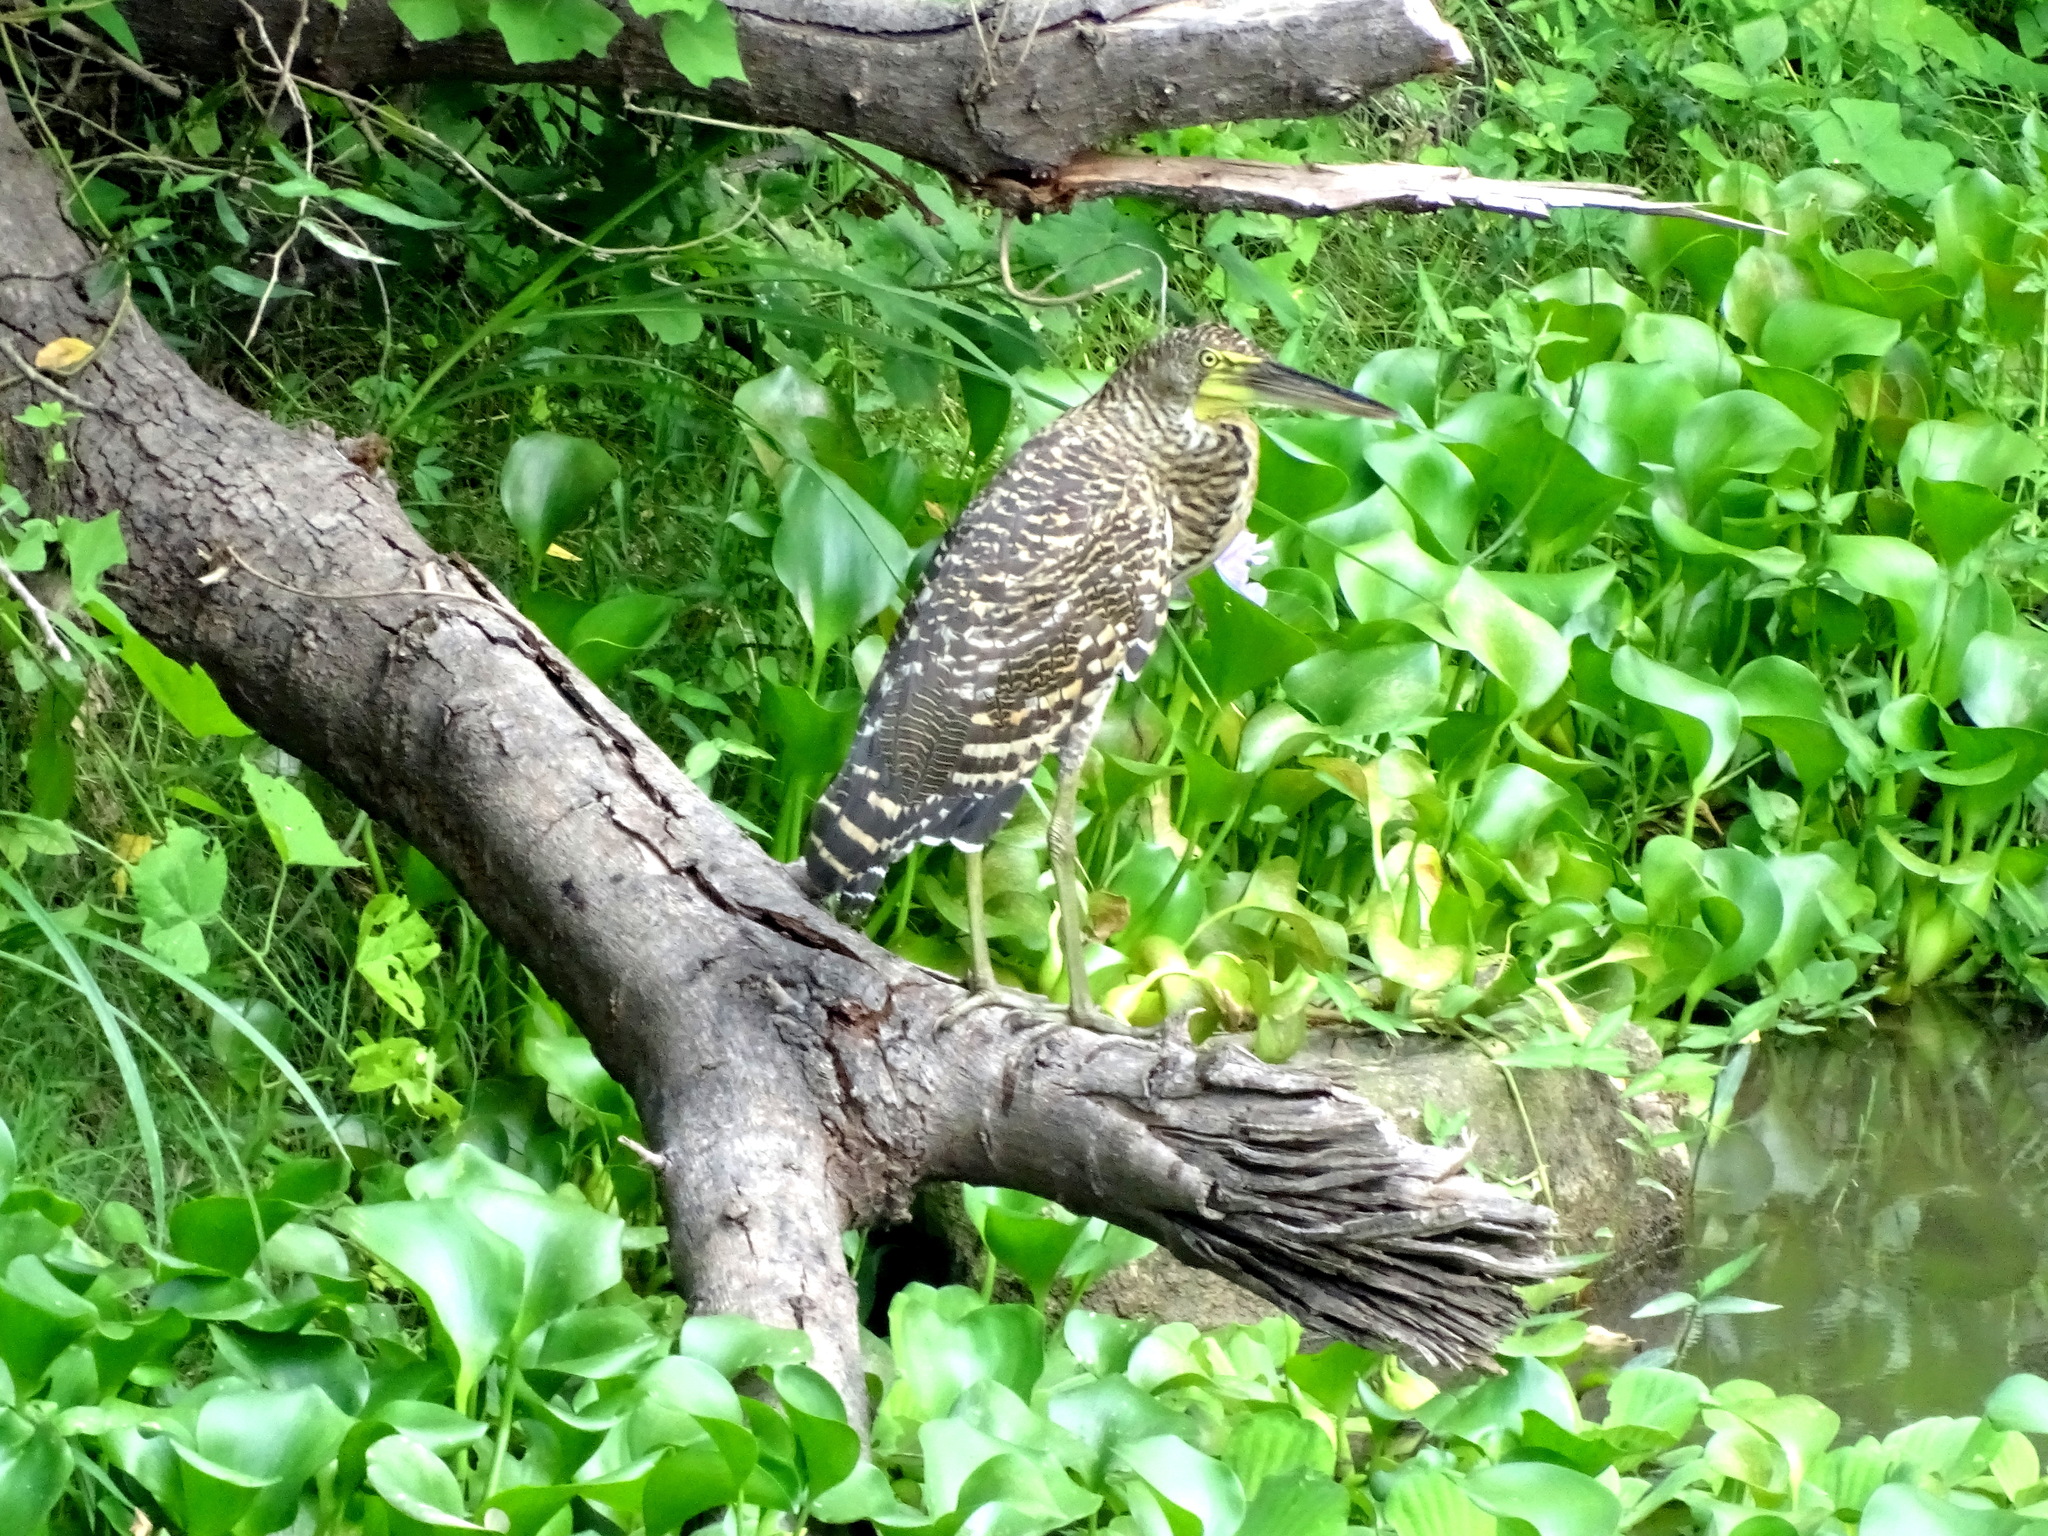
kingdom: Animalia
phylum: Chordata
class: Aves
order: Pelecaniformes
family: Ardeidae
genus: Tigrisoma
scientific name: Tigrisoma mexicanum
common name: Bare-throated tiger-heron
